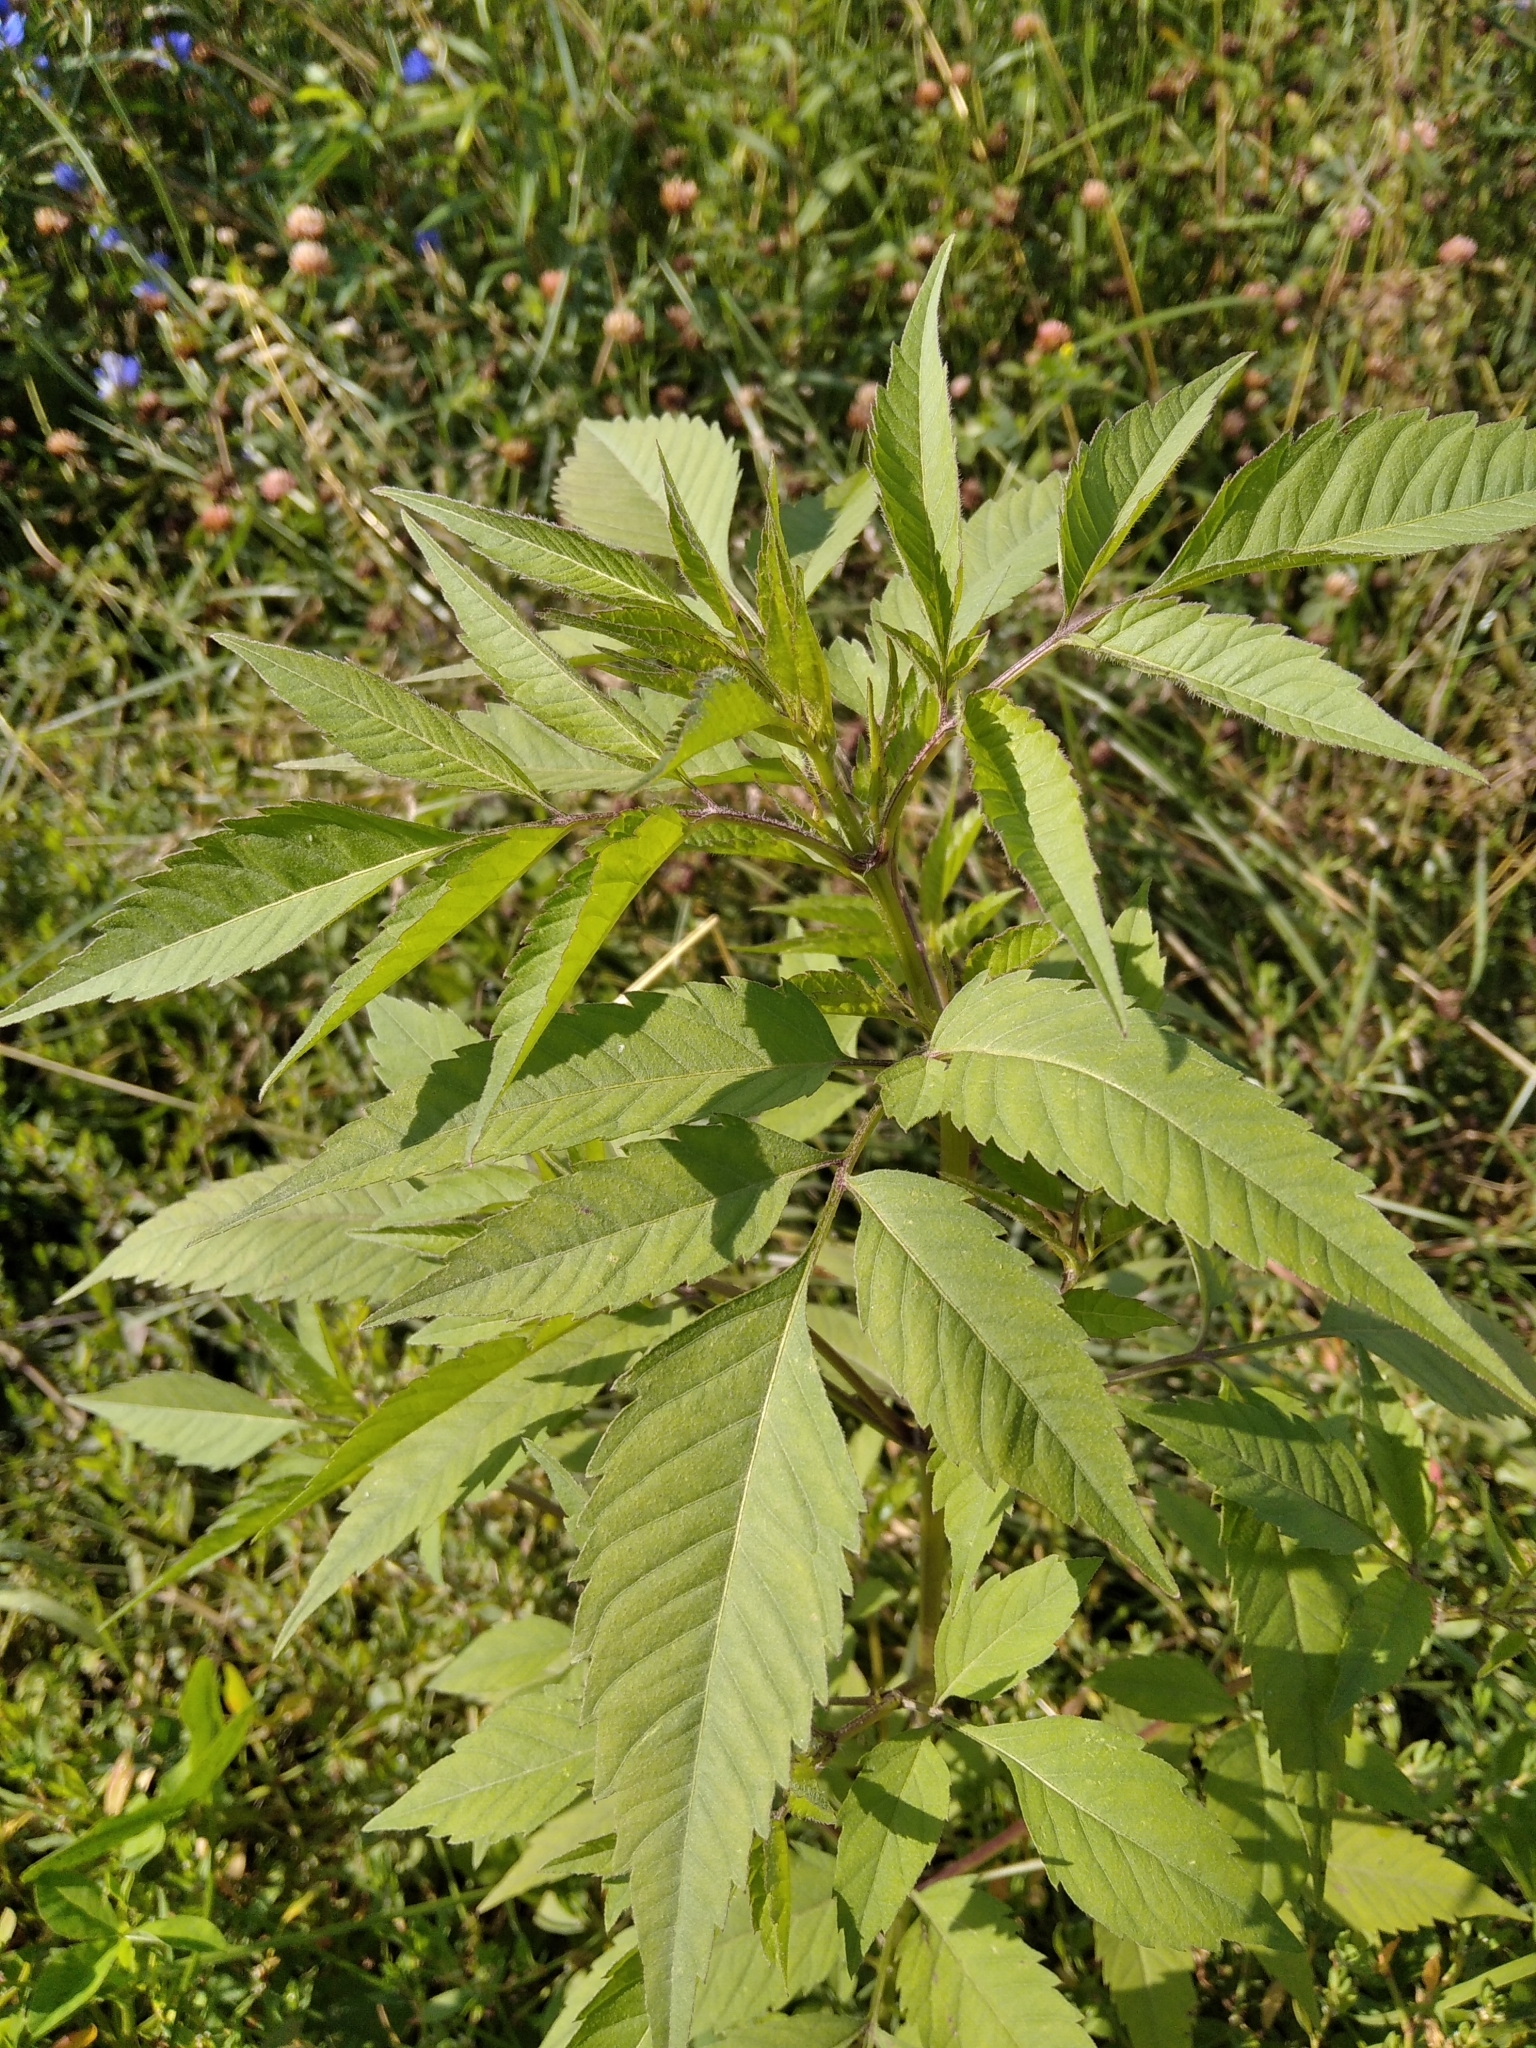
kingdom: Plantae
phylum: Tracheophyta
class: Magnoliopsida
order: Asterales
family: Asteraceae
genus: Bidens
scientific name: Bidens frondosa
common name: Beggarticks
